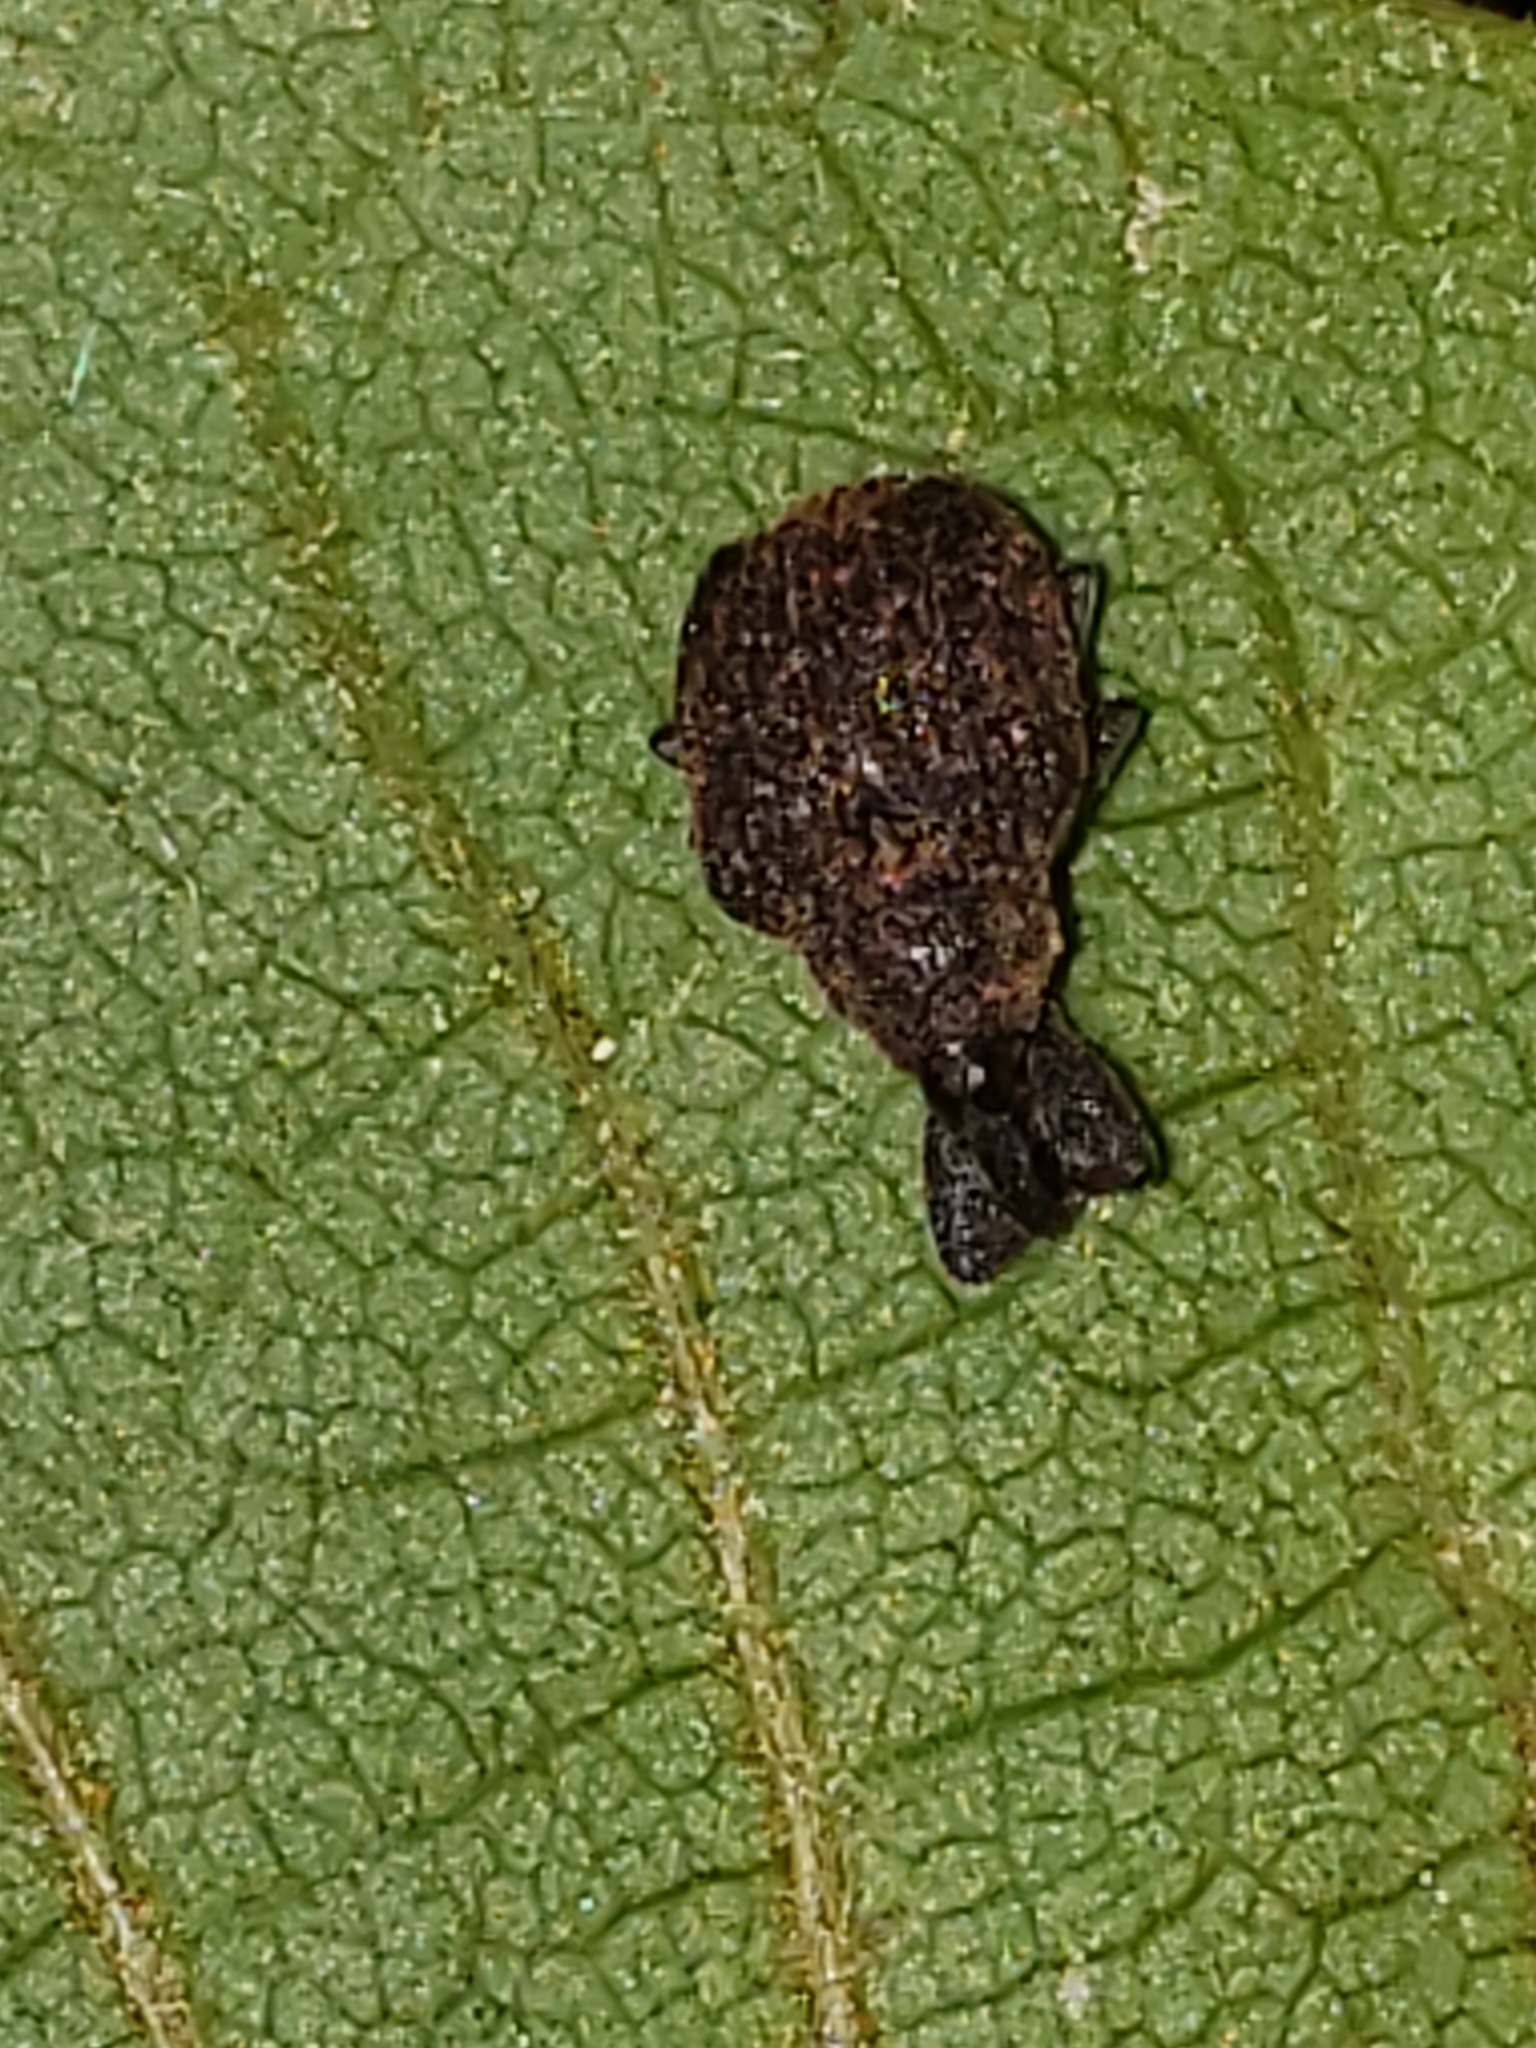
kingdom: Animalia
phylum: Arthropoda
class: Insecta
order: Coleoptera
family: Curculionidae
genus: Odontopus
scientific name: Odontopus calceatus
